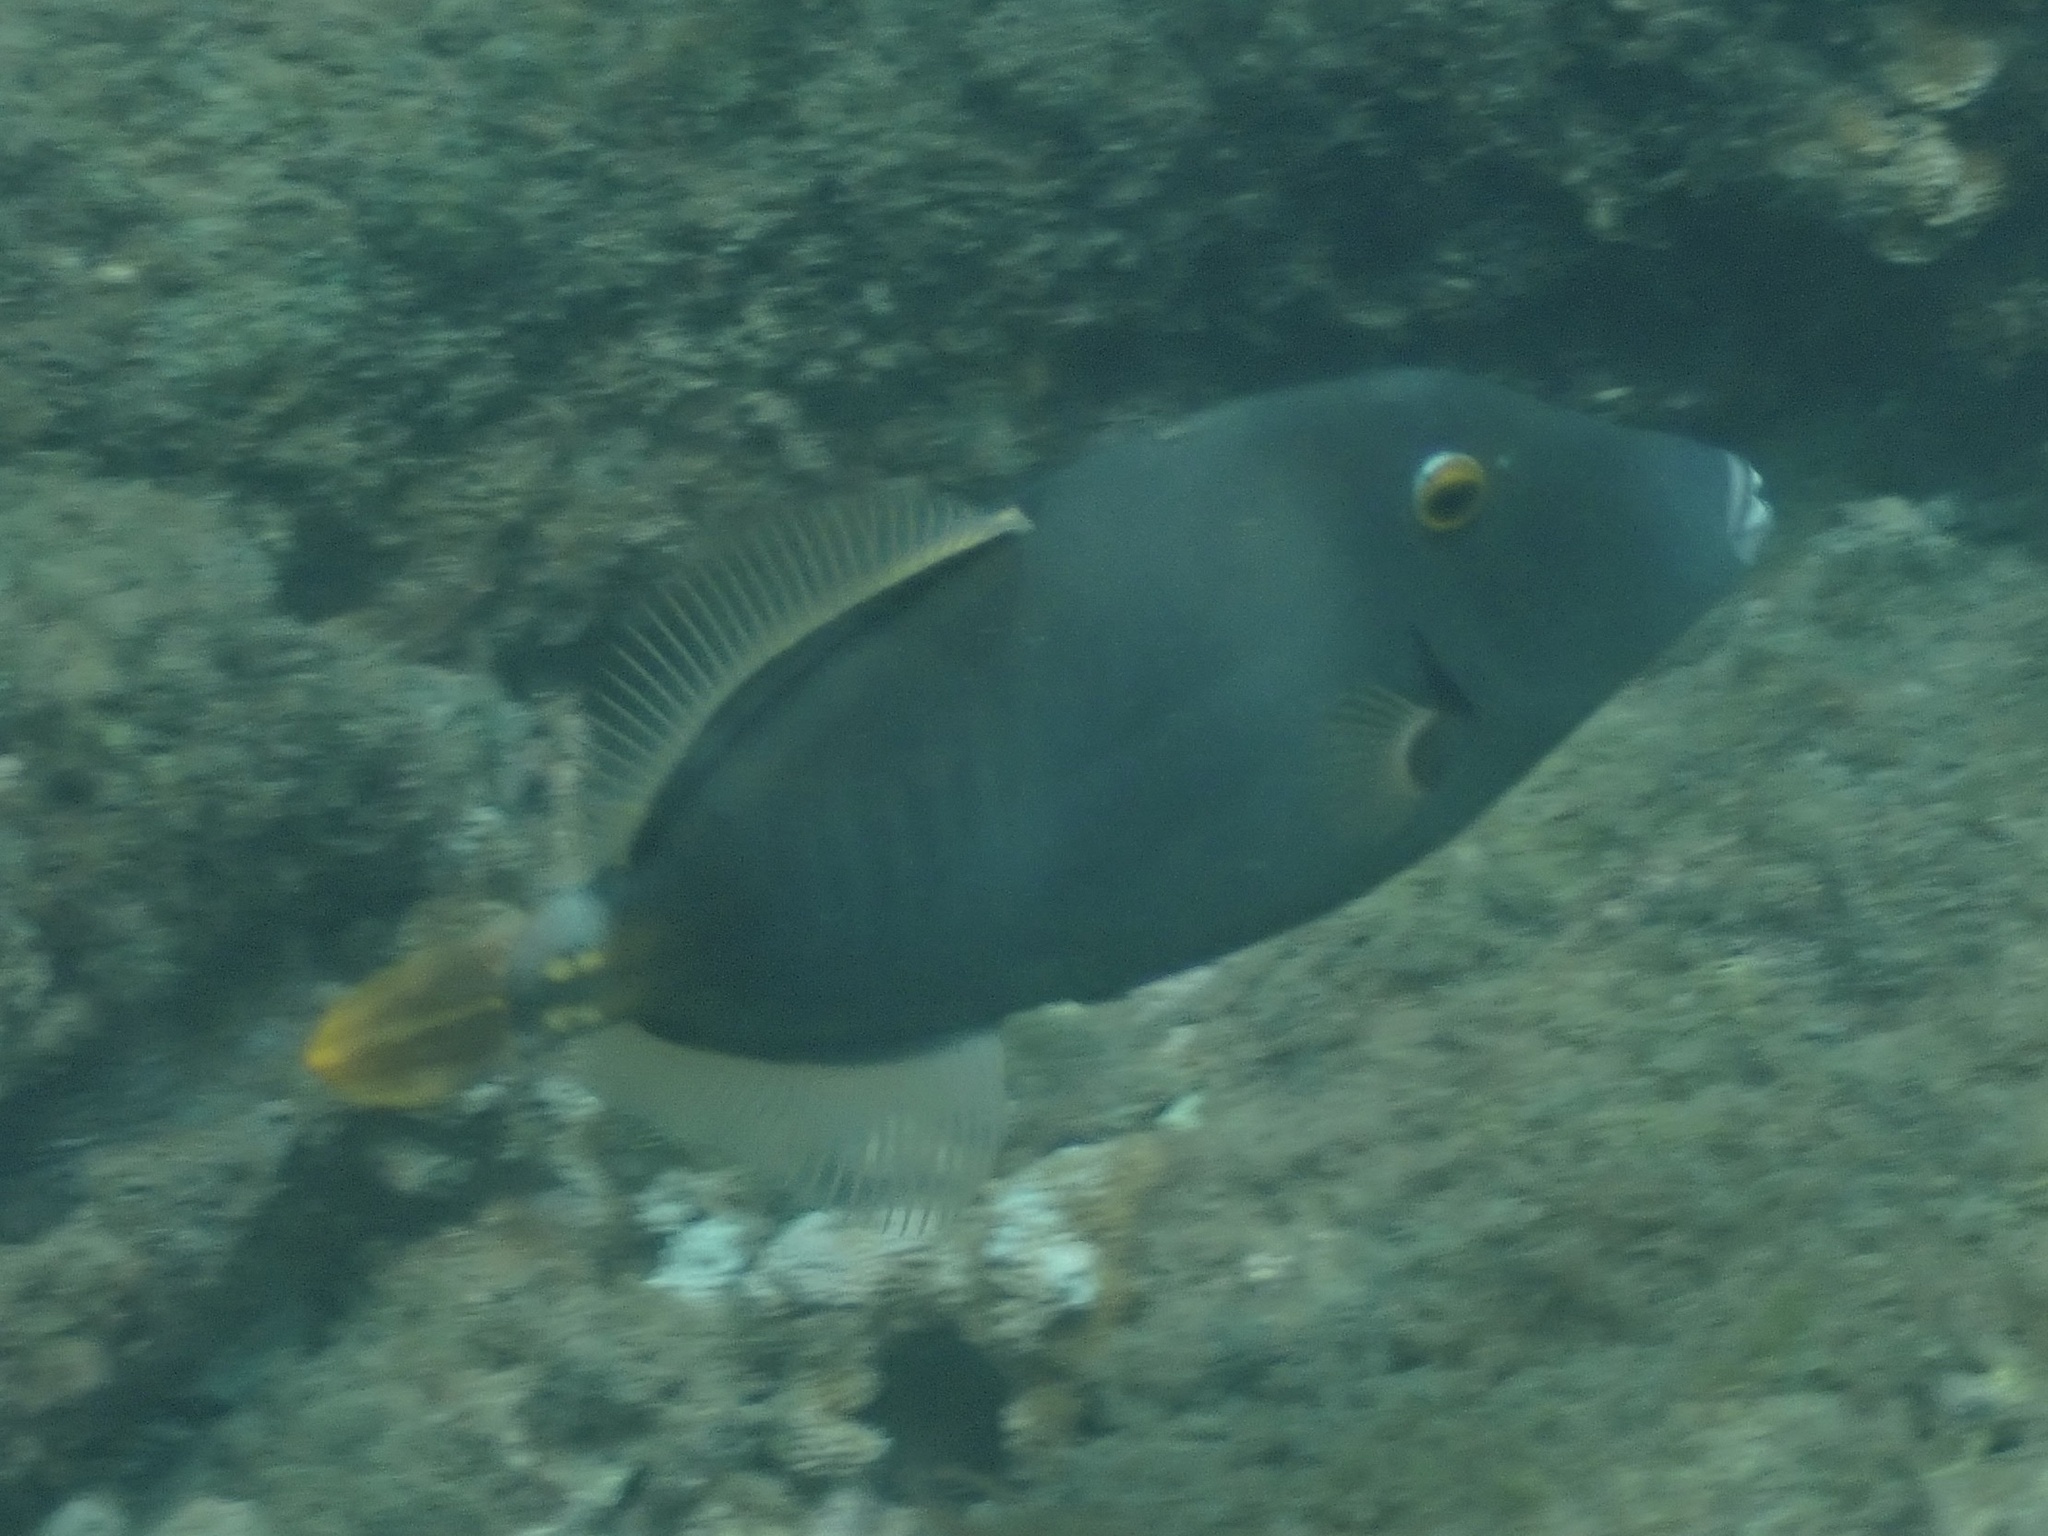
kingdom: Animalia
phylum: Chordata
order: Tetraodontiformes
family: Monacanthidae
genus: Cantherhines
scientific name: Cantherhines dumerilii
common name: Barred filefish
